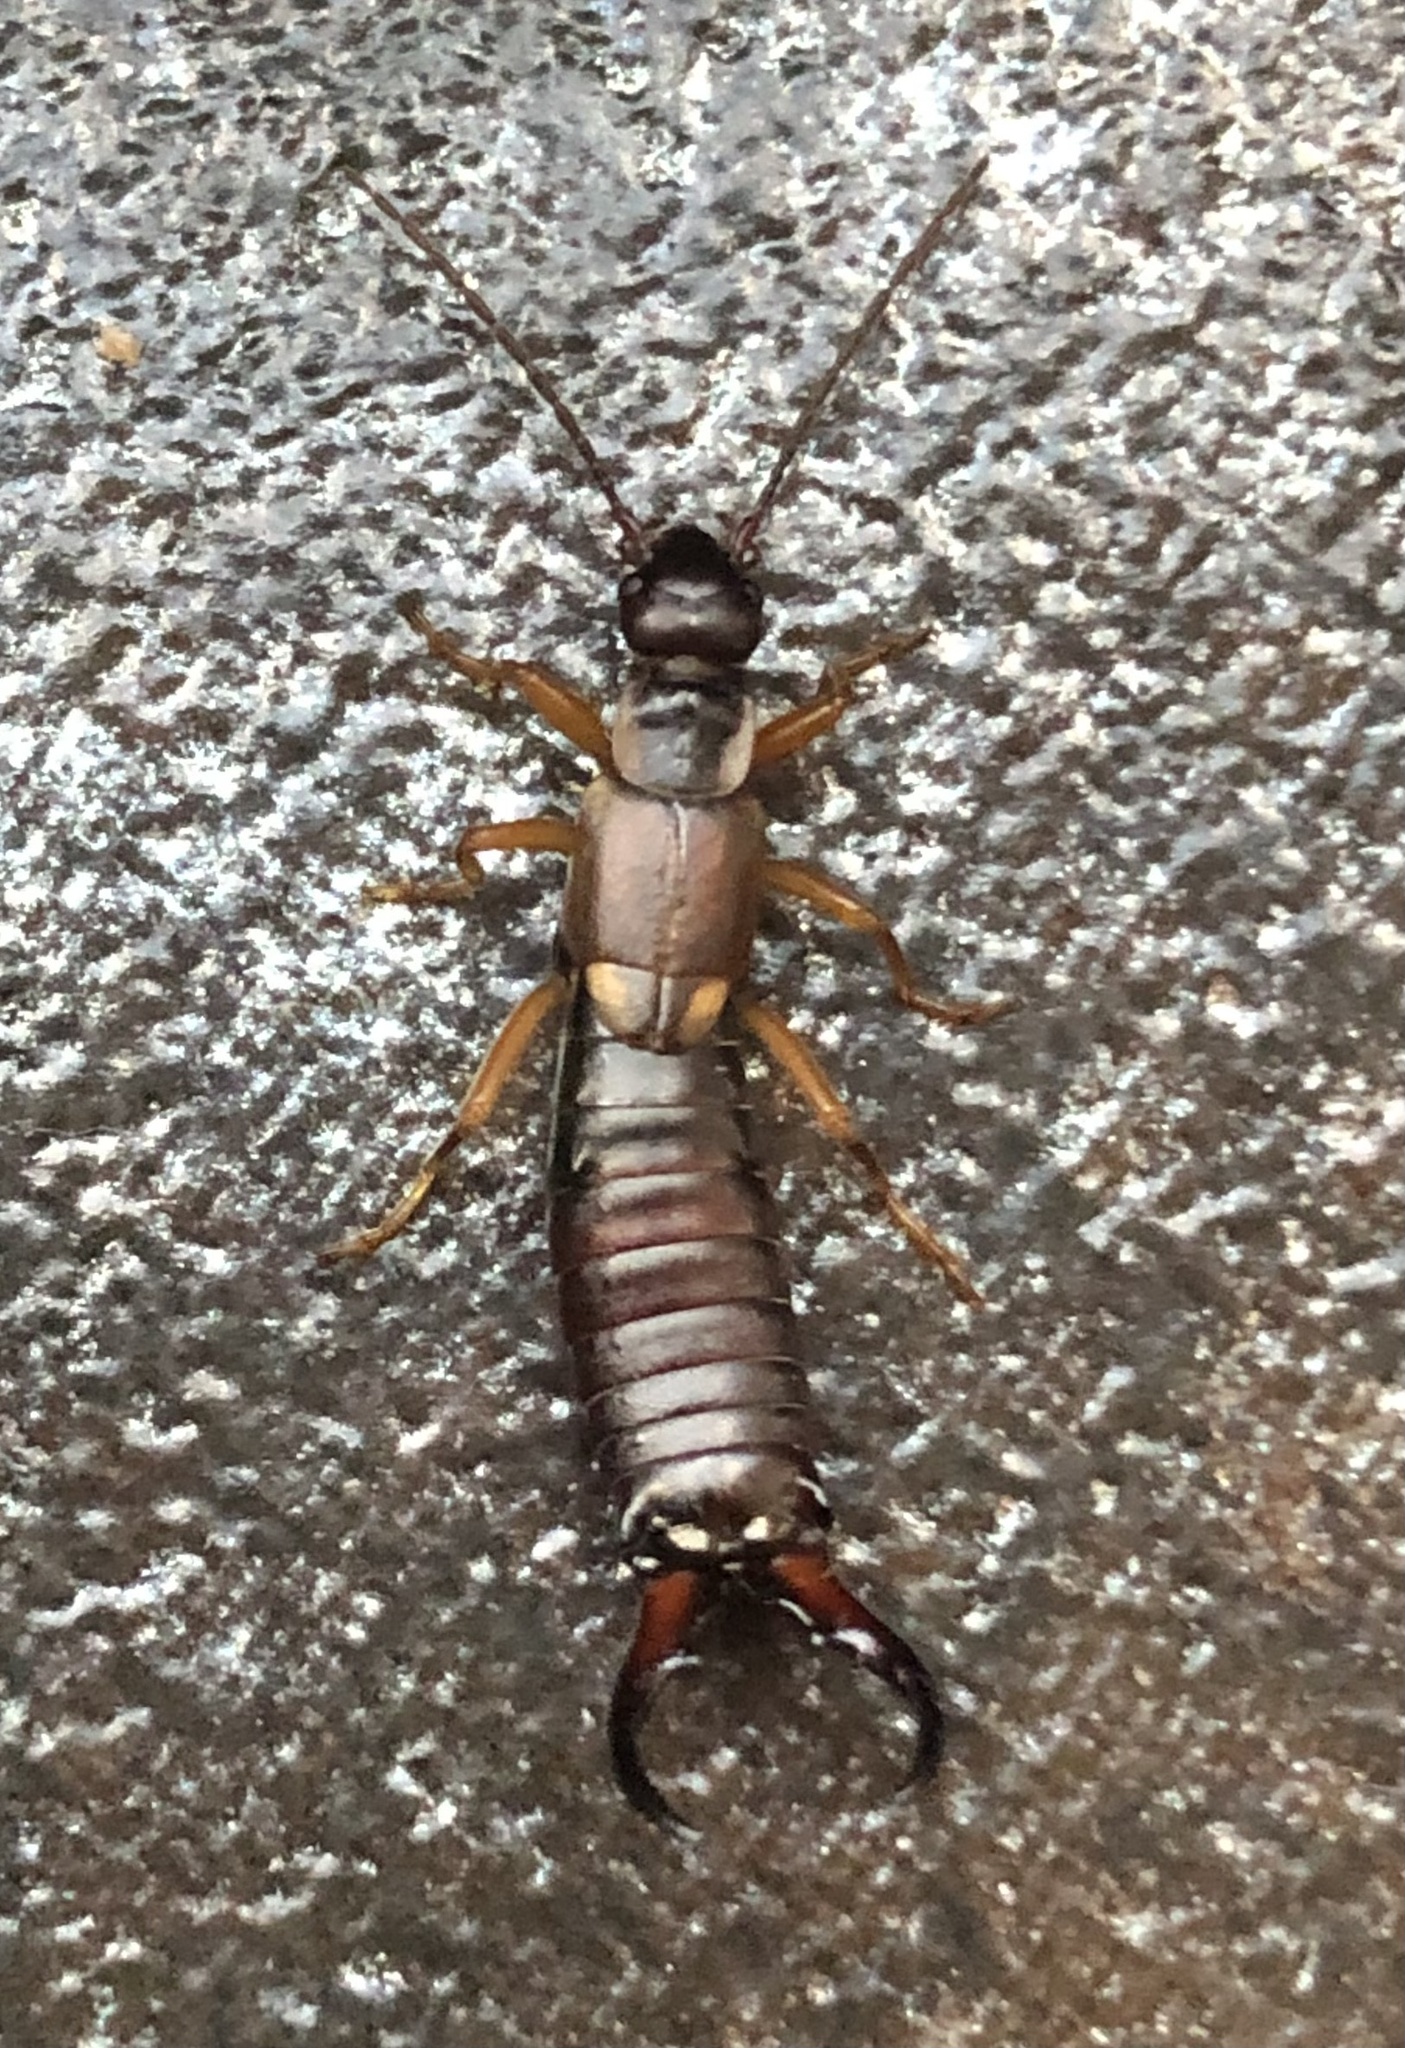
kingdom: Animalia
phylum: Arthropoda
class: Insecta
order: Dermaptera
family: Forficulidae
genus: Forficula
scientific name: Forficula auricularia
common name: European earwig
